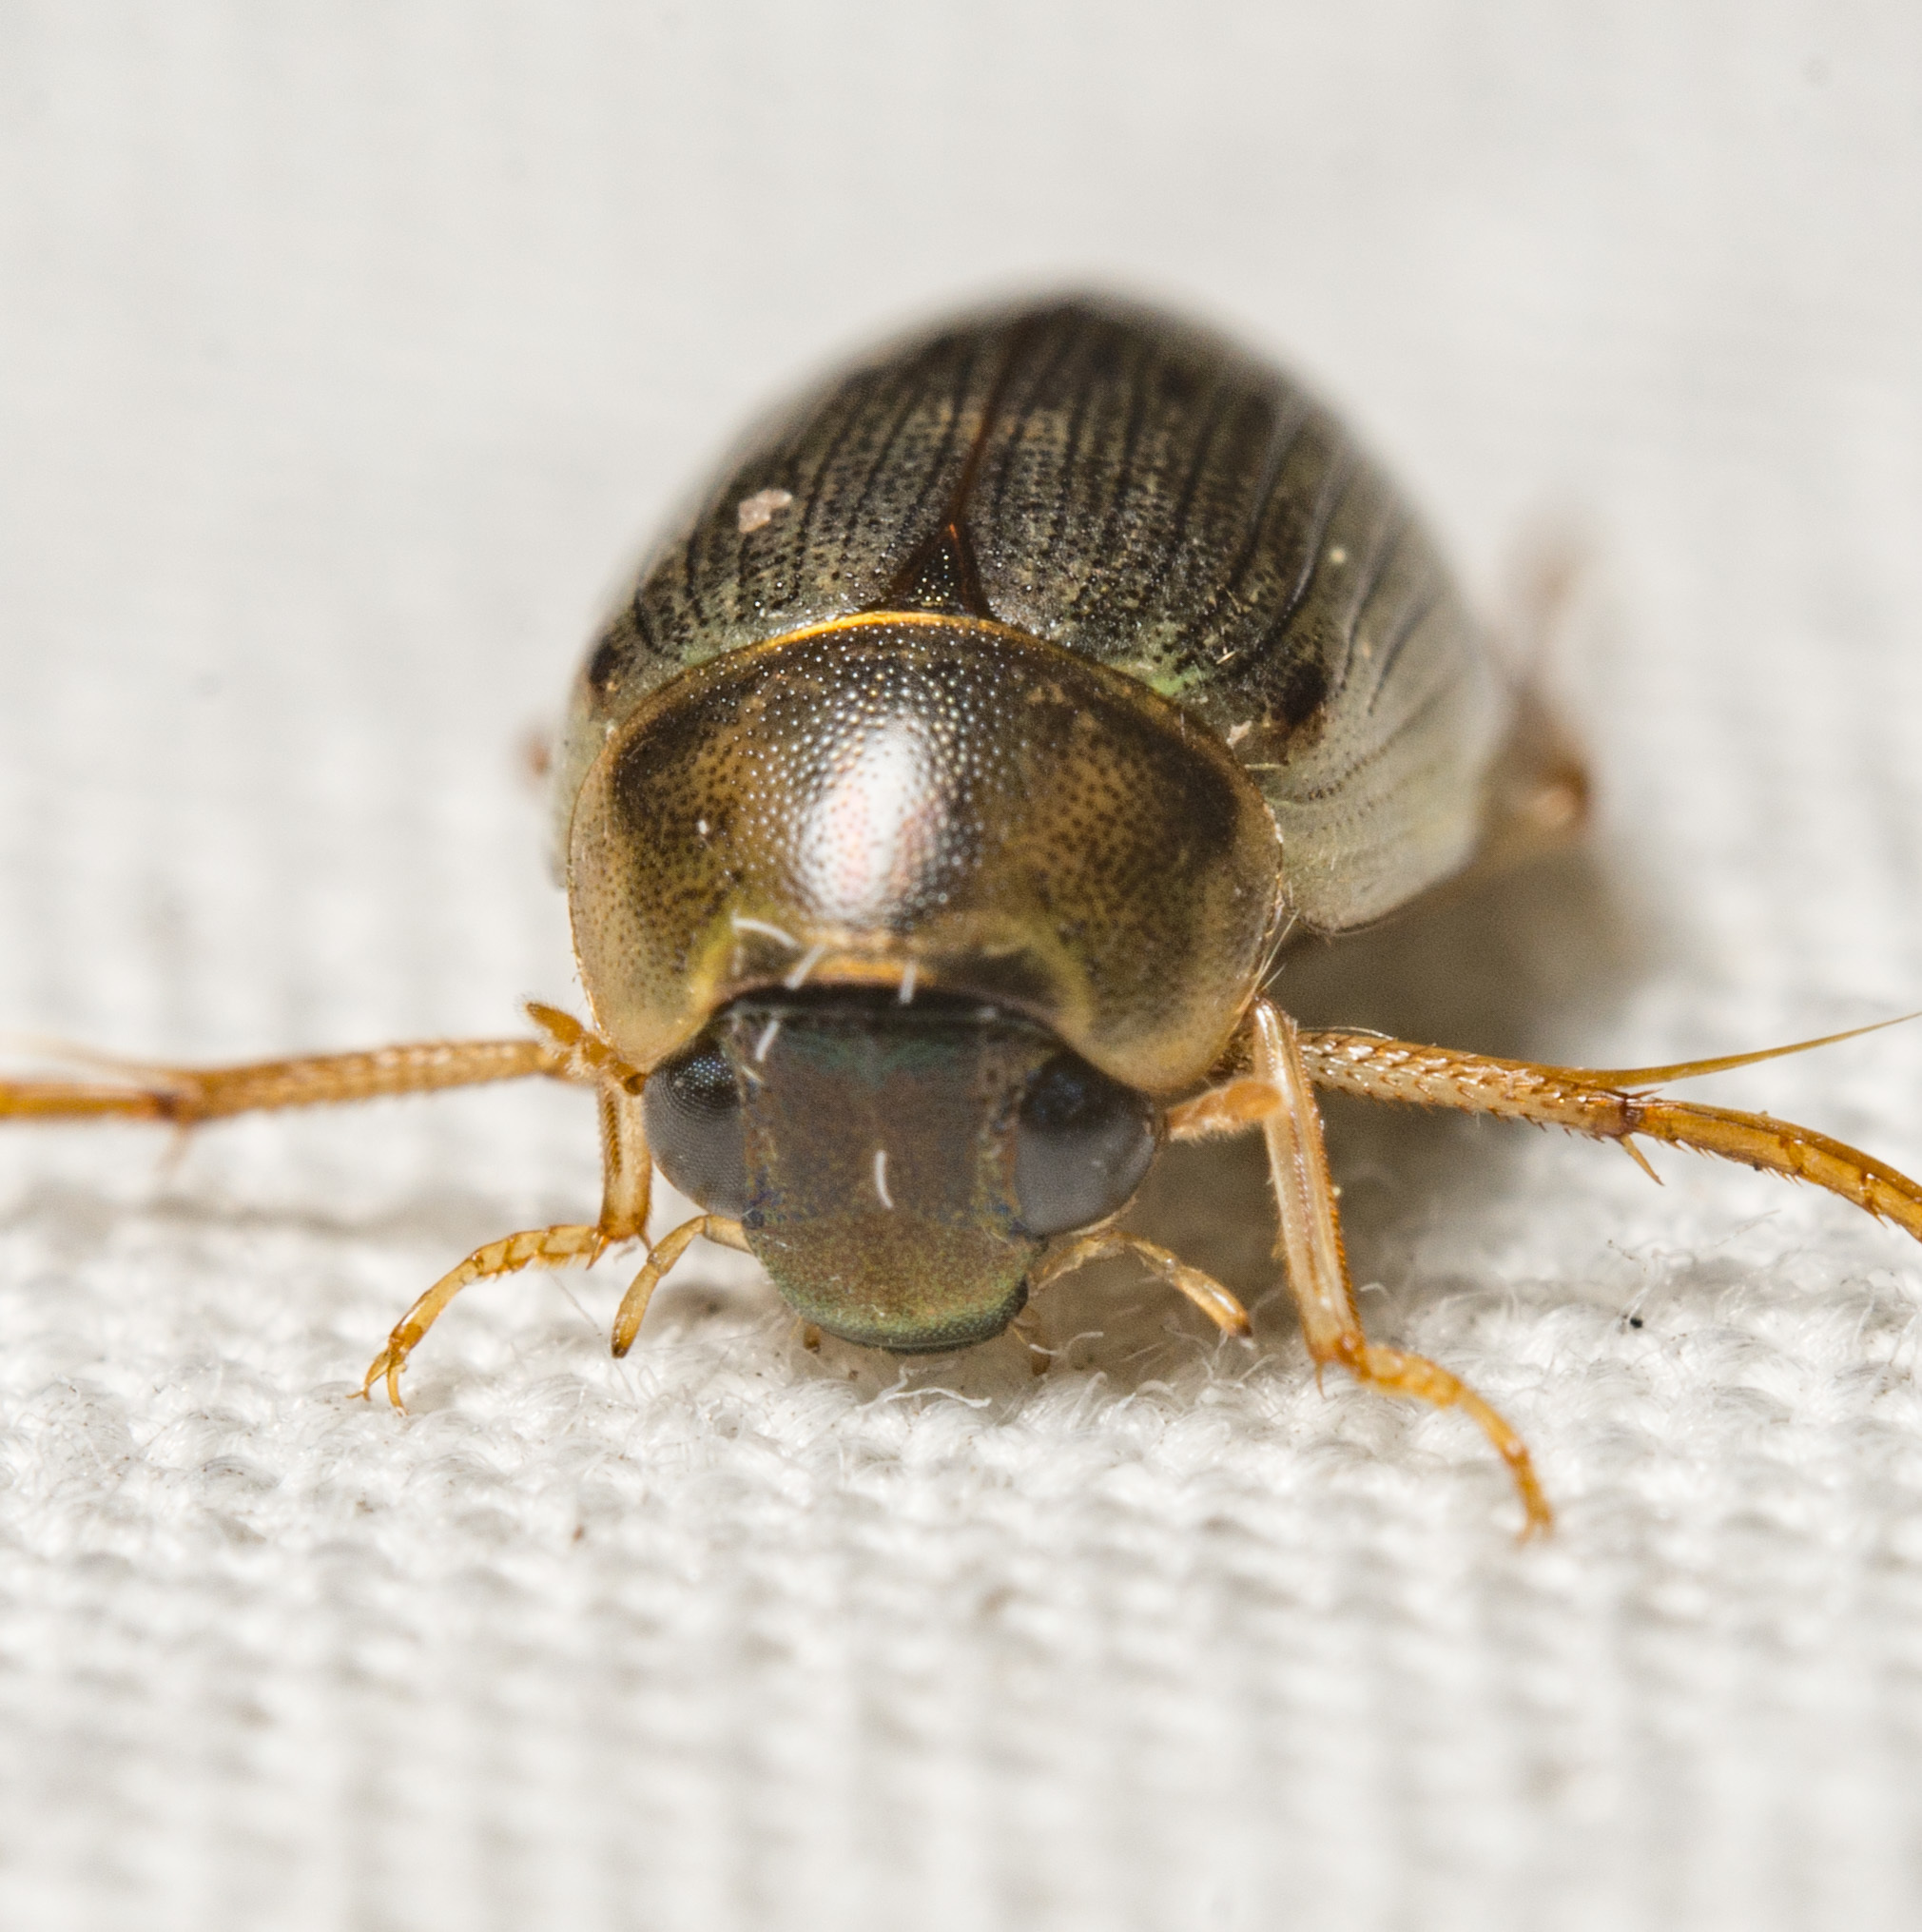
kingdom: Animalia
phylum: Arthropoda
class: Insecta
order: Coleoptera
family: Hydrophilidae
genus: Berosus
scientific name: Berosus
